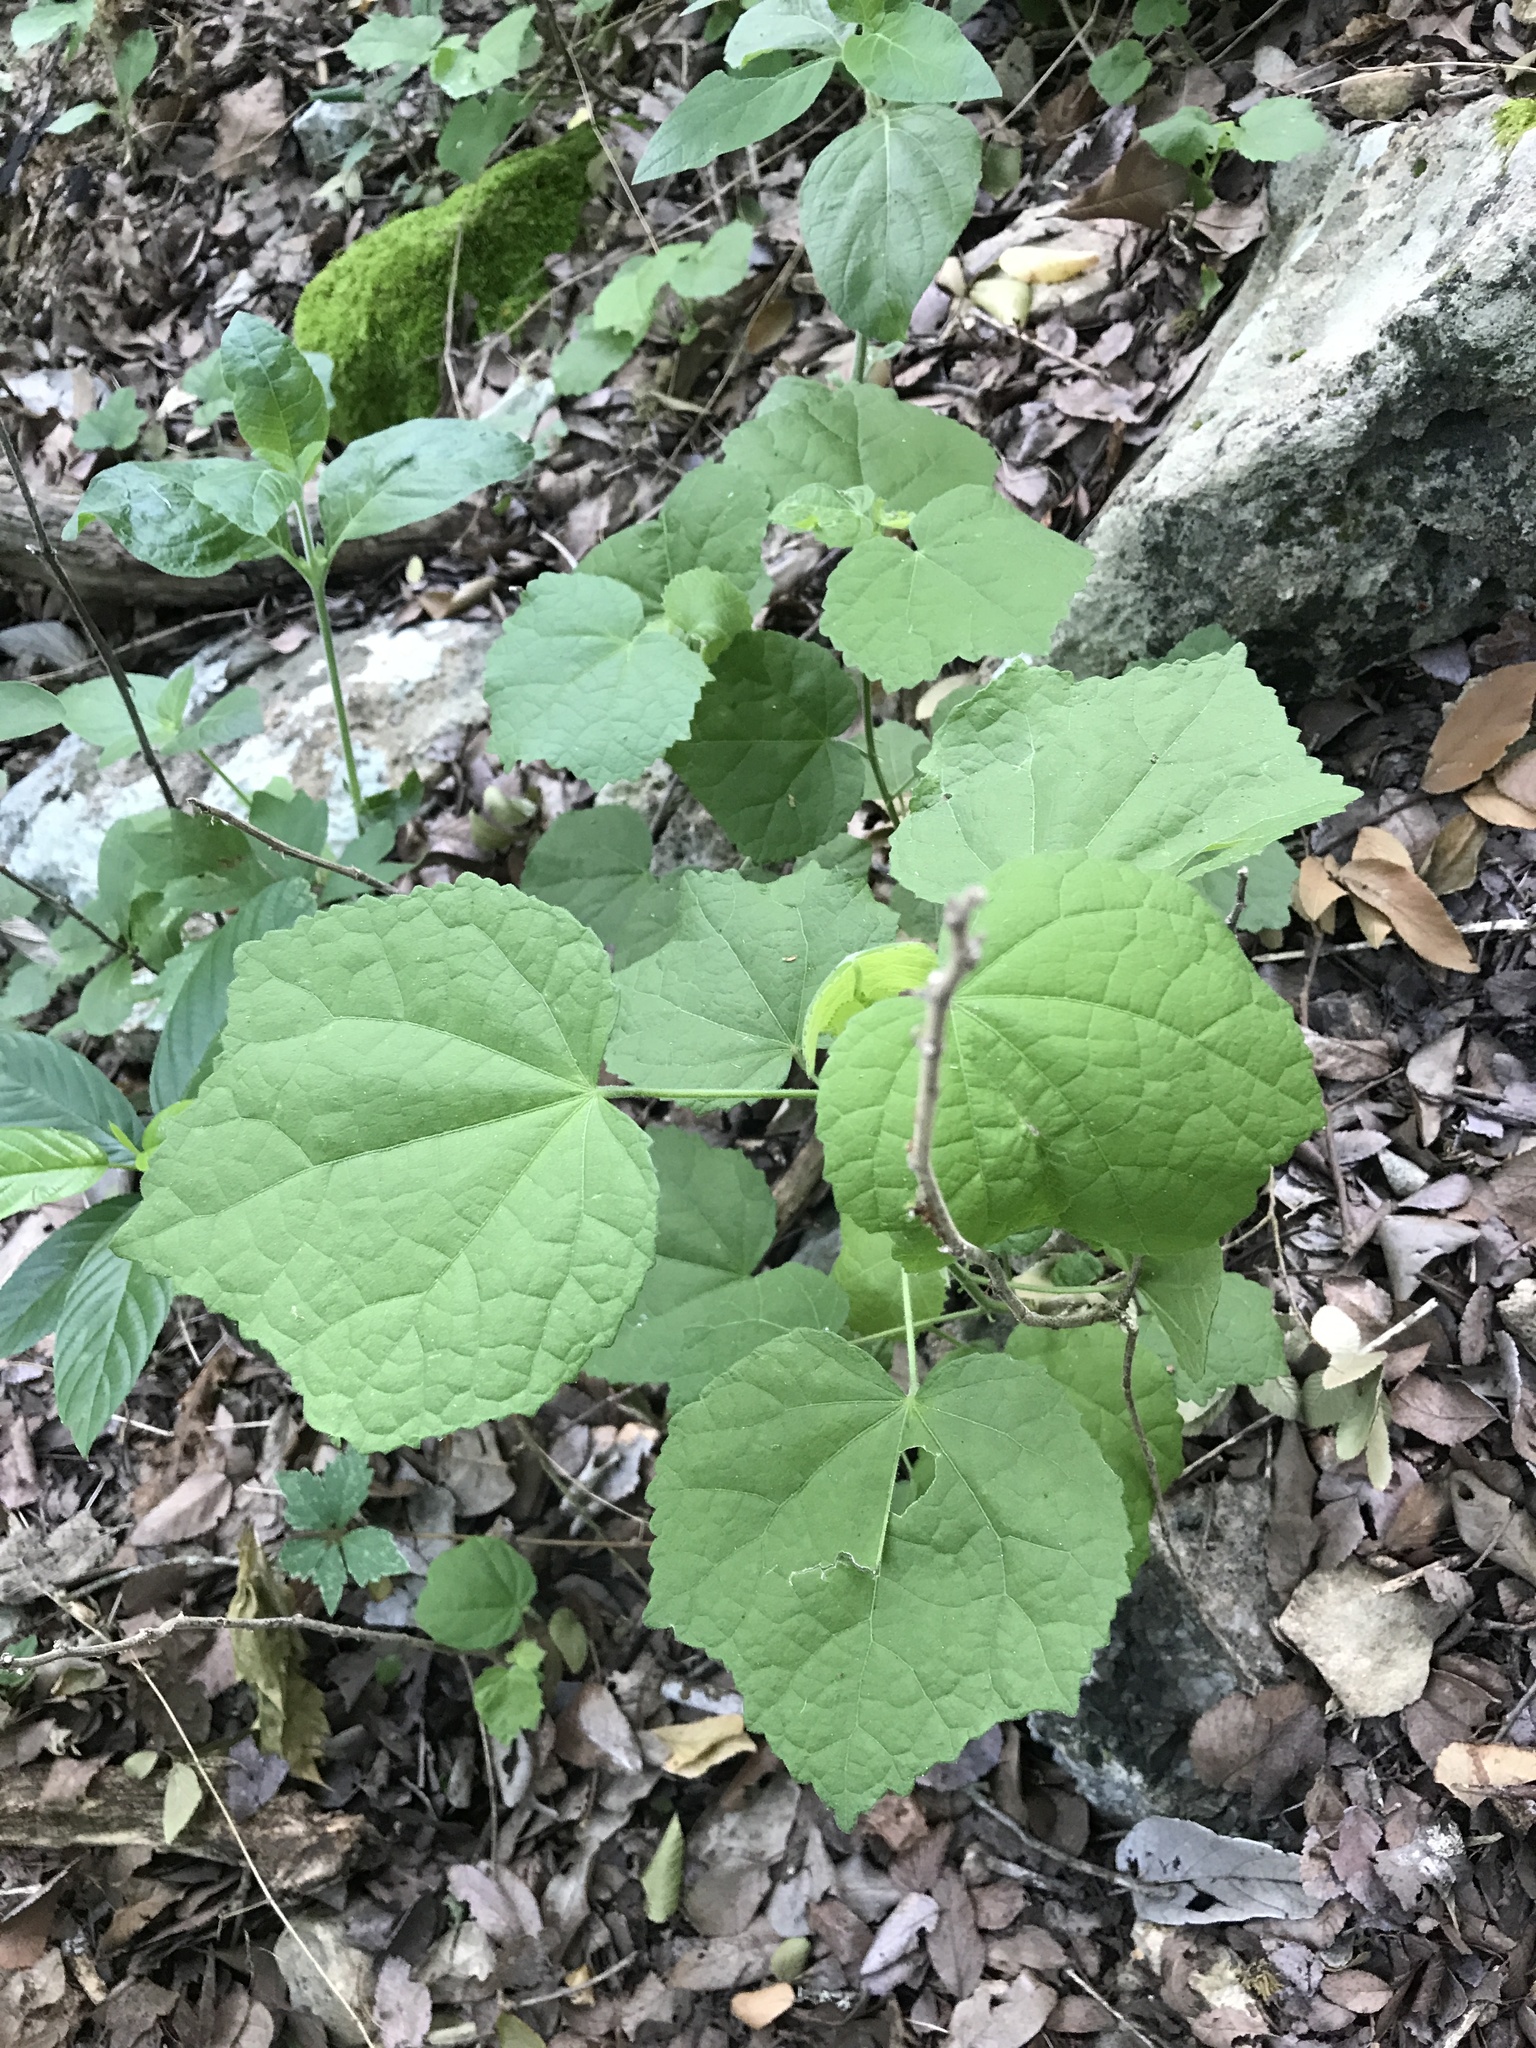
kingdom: Plantae
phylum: Tracheophyta
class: Magnoliopsida
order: Malvales
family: Malvaceae
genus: Malvaviscus
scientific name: Malvaviscus arboreus
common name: Wax mallow
